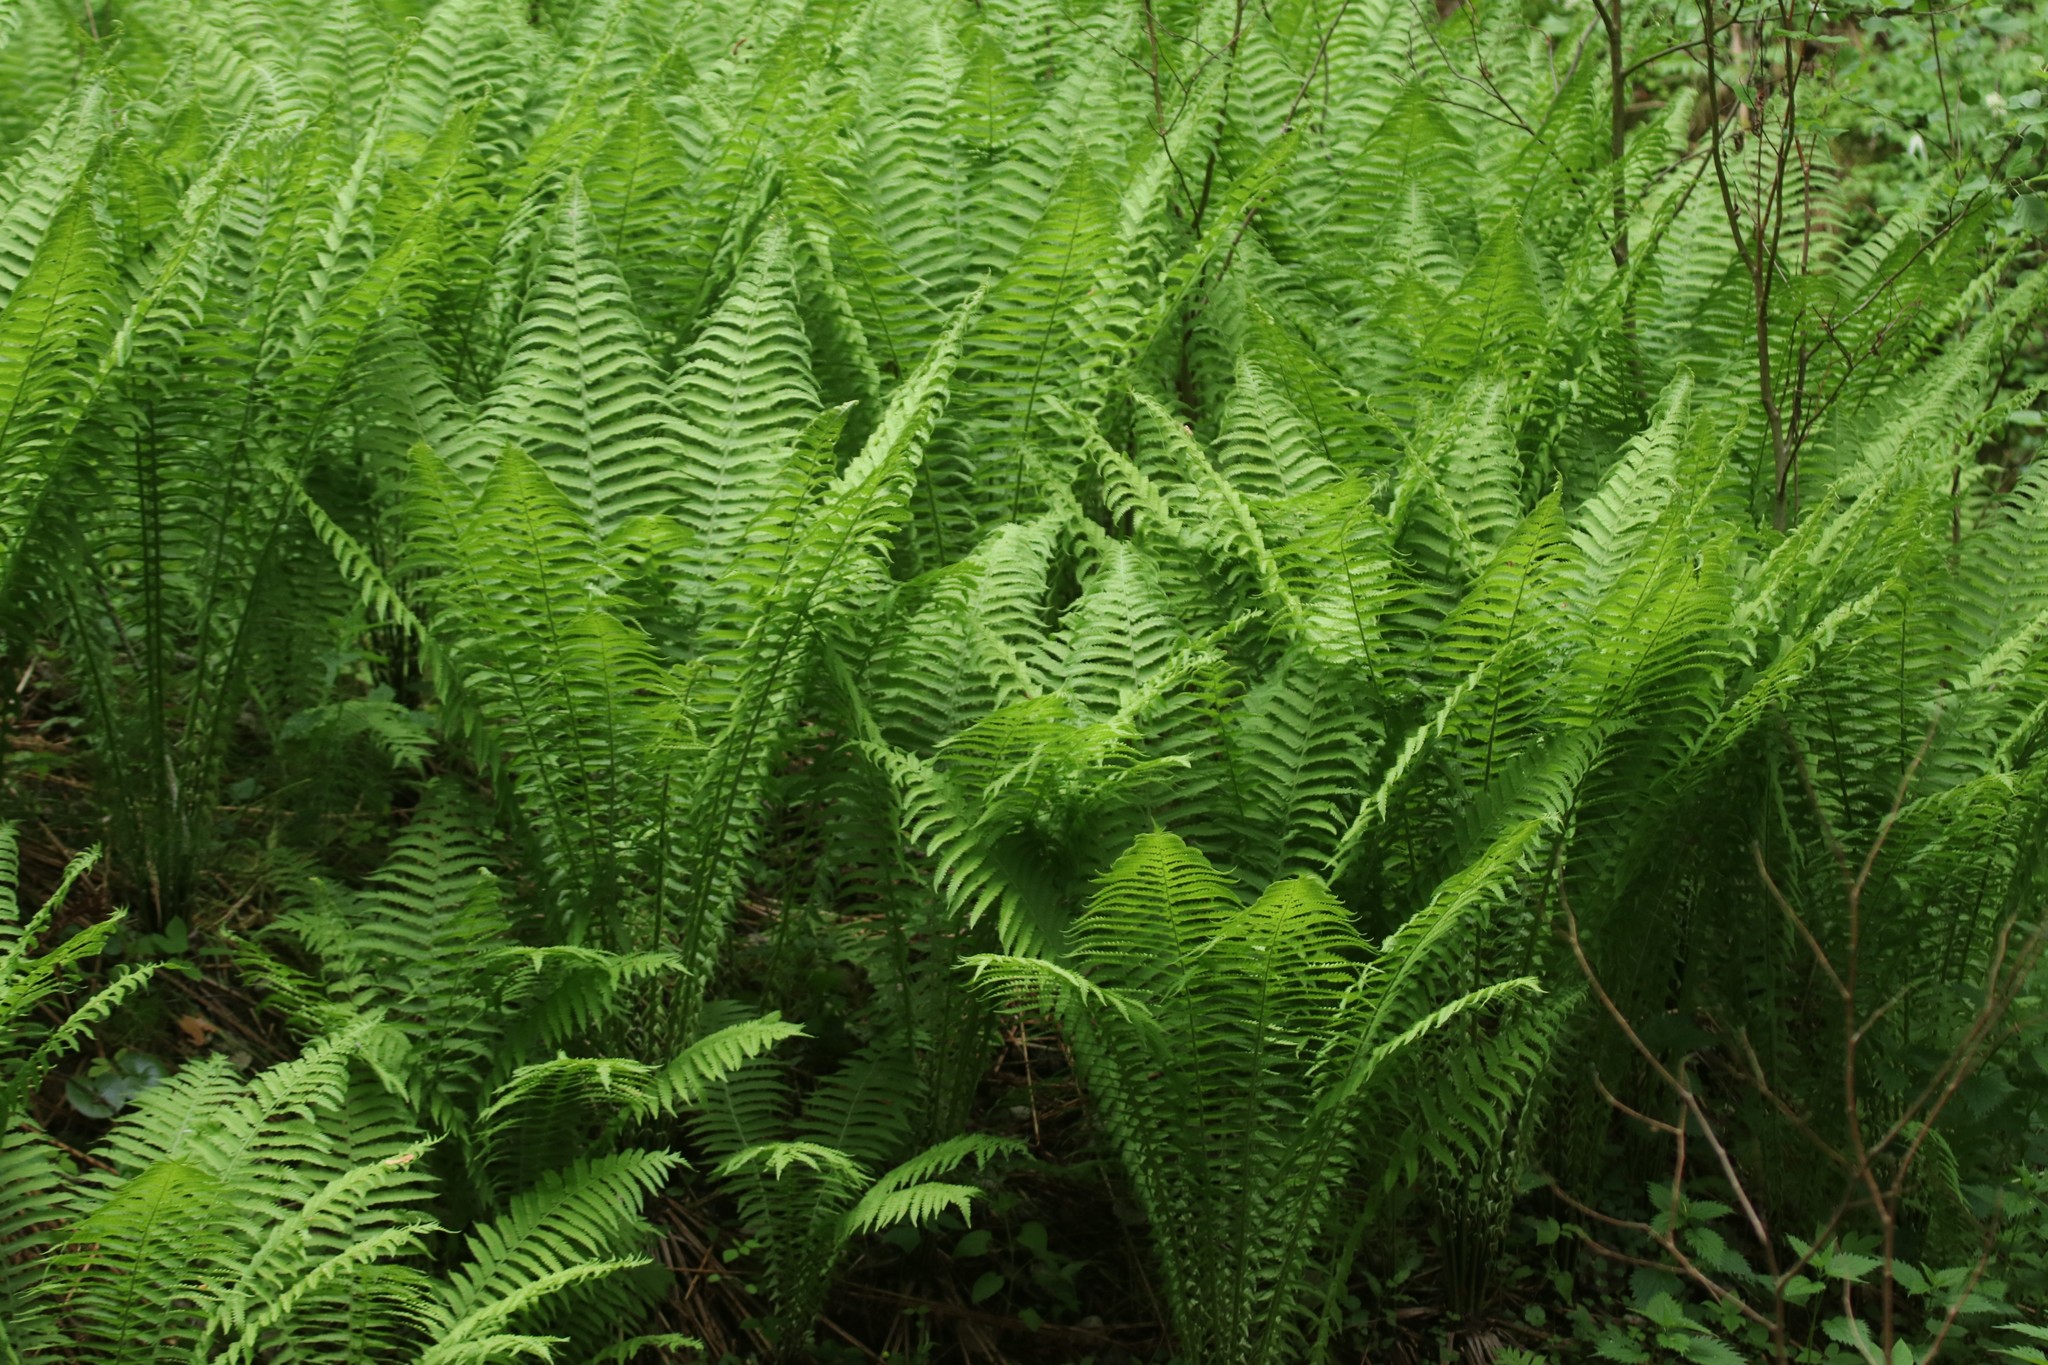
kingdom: Plantae
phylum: Tracheophyta
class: Polypodiopsida
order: Polypodiales
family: Onocleaceae
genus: Matteuccia
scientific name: Matteuccia struthiopteris
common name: Ostrich fern
